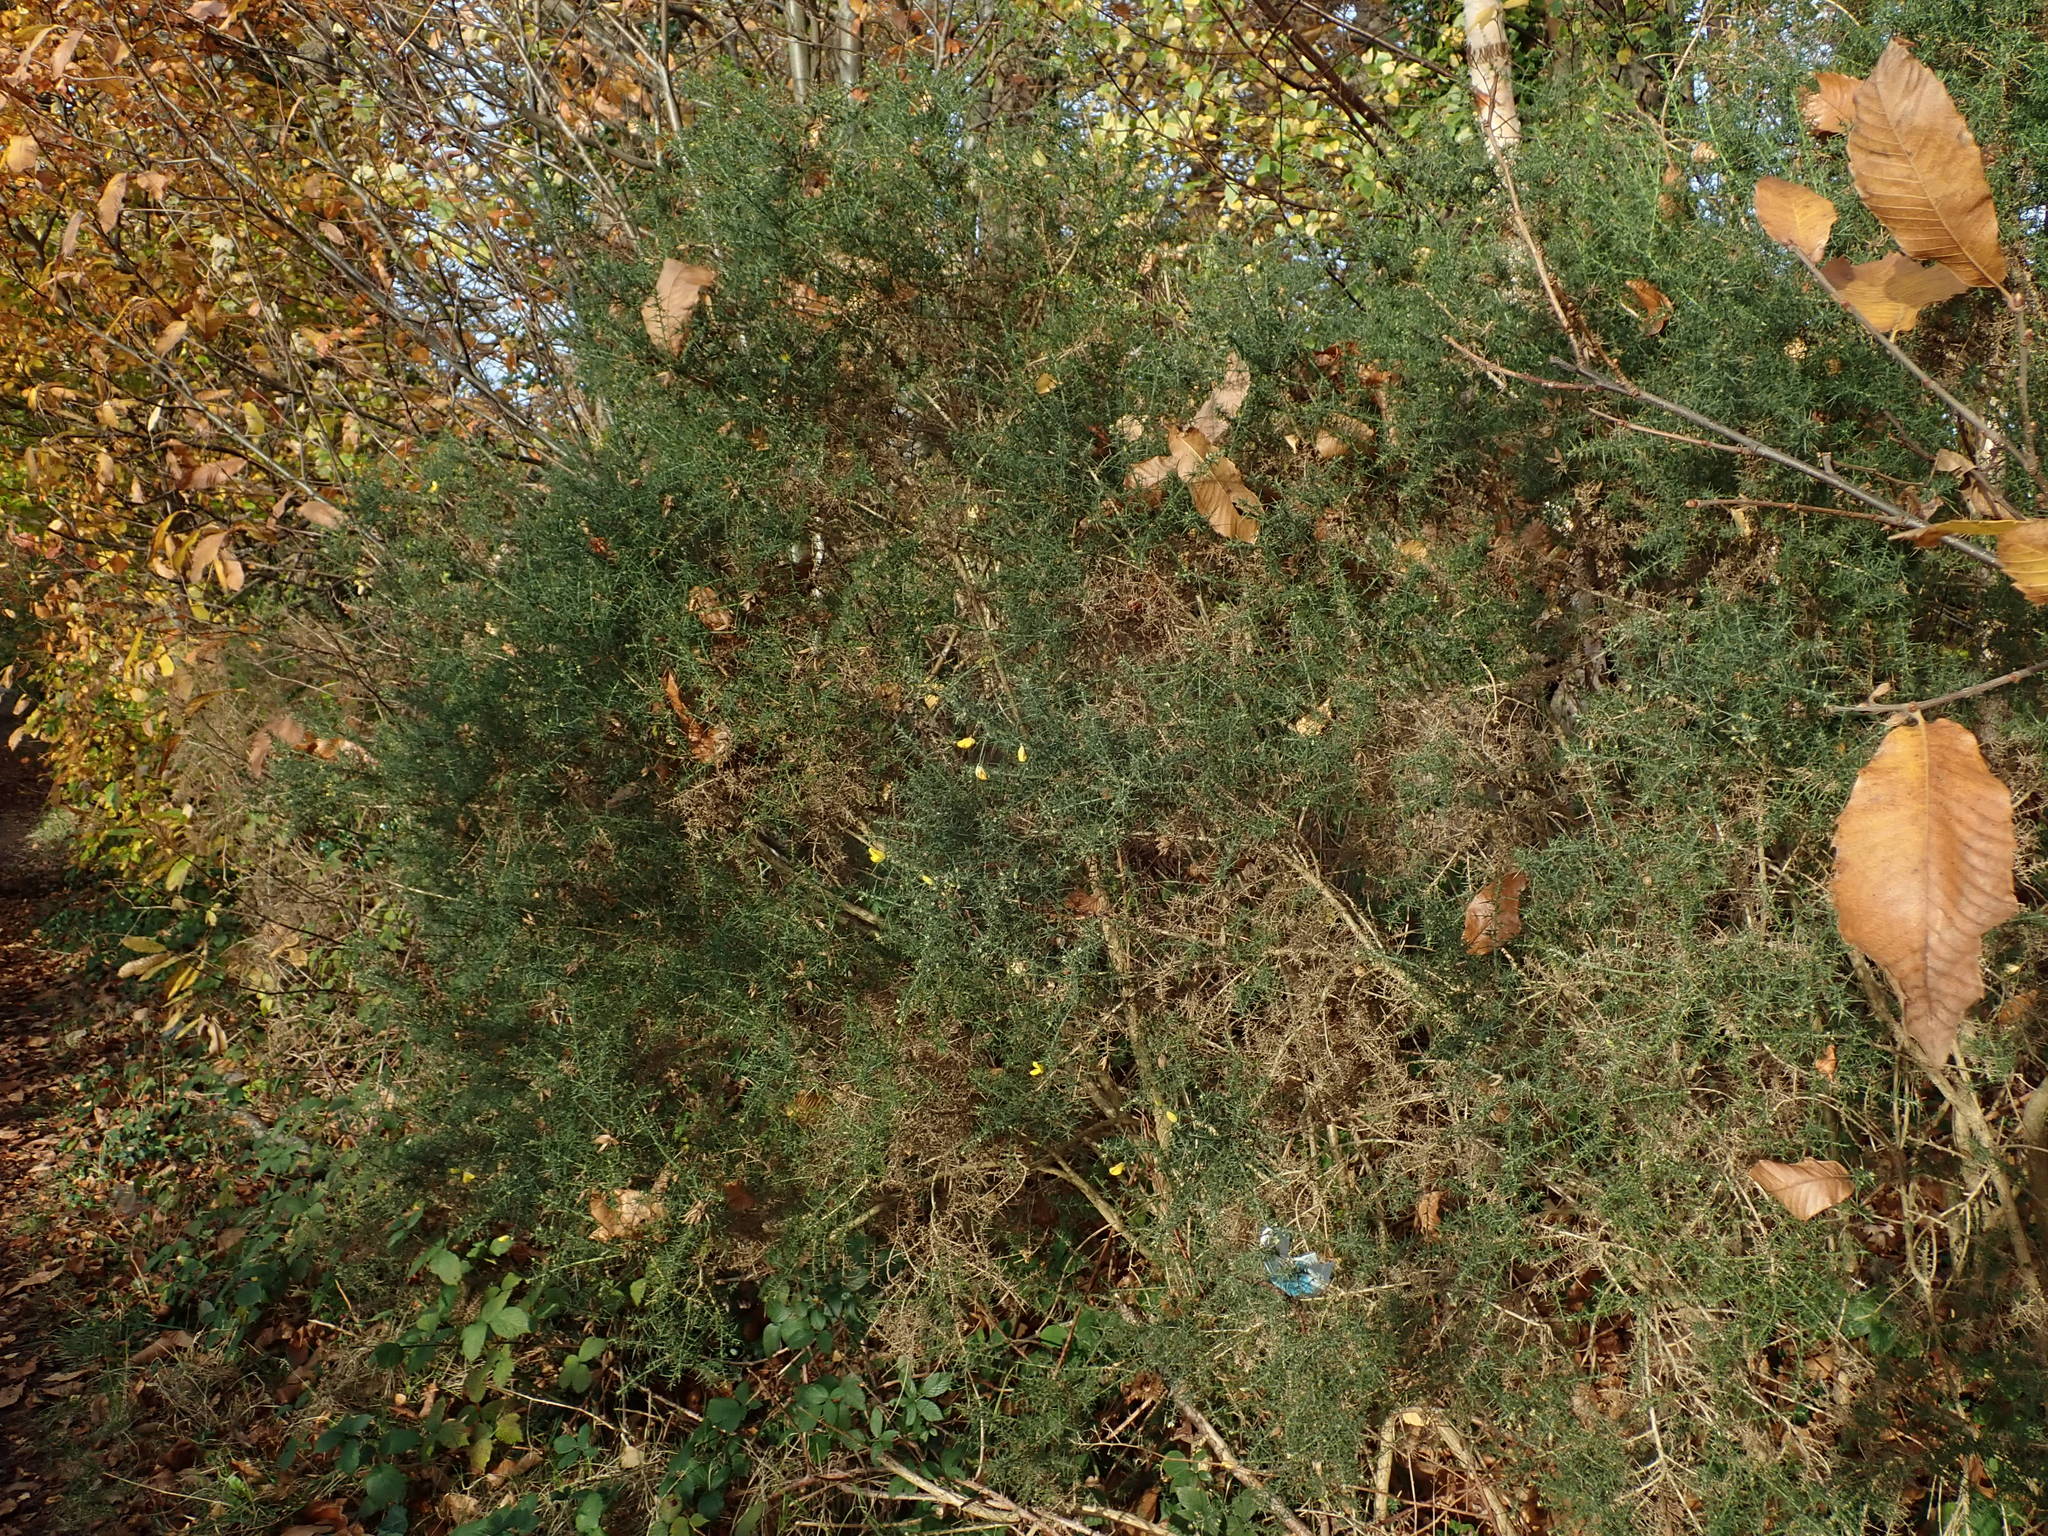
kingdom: Plantae
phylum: Tracheophyta
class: Magnoliopsida
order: Fabales
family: Fabaceae
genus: Ulex
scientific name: Ulex europaeus
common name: Common gorse
